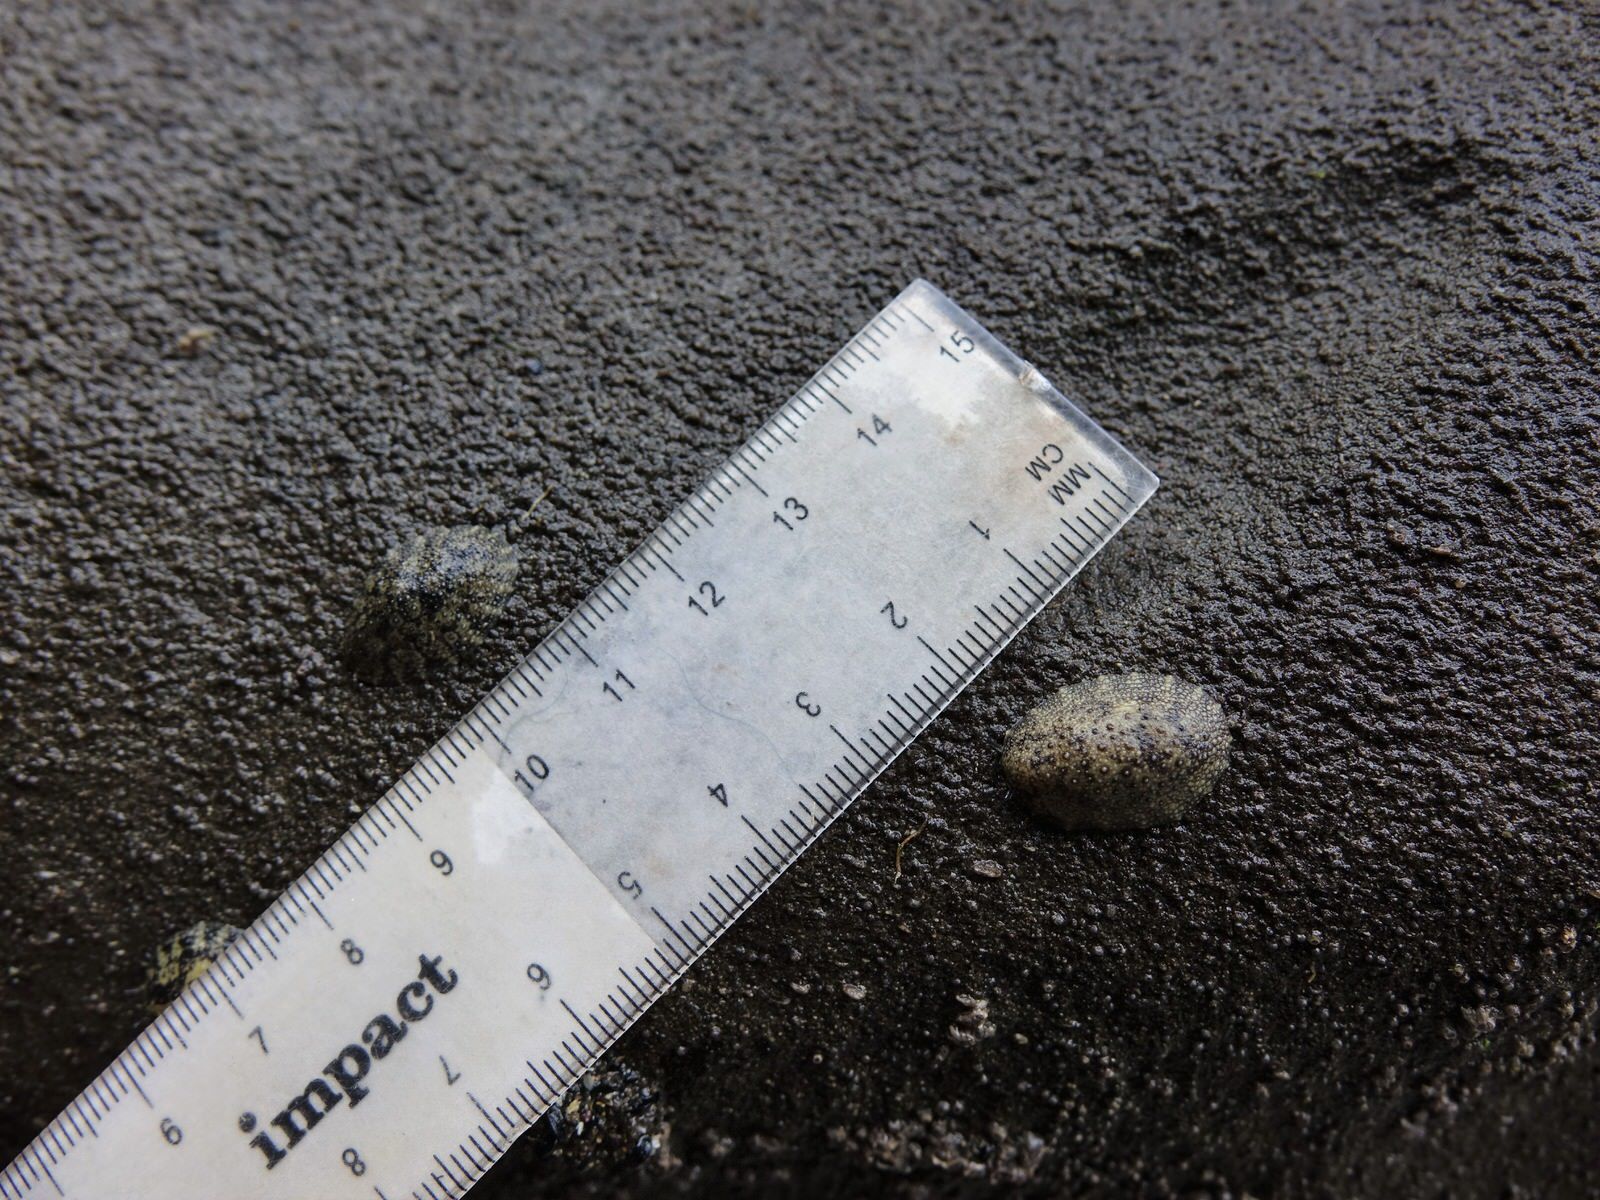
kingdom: Animalia
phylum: Mollusca
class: Gastropoda
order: Systellommatophora
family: Onchidiidae
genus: Onchidella
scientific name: Onchidella nigricans
